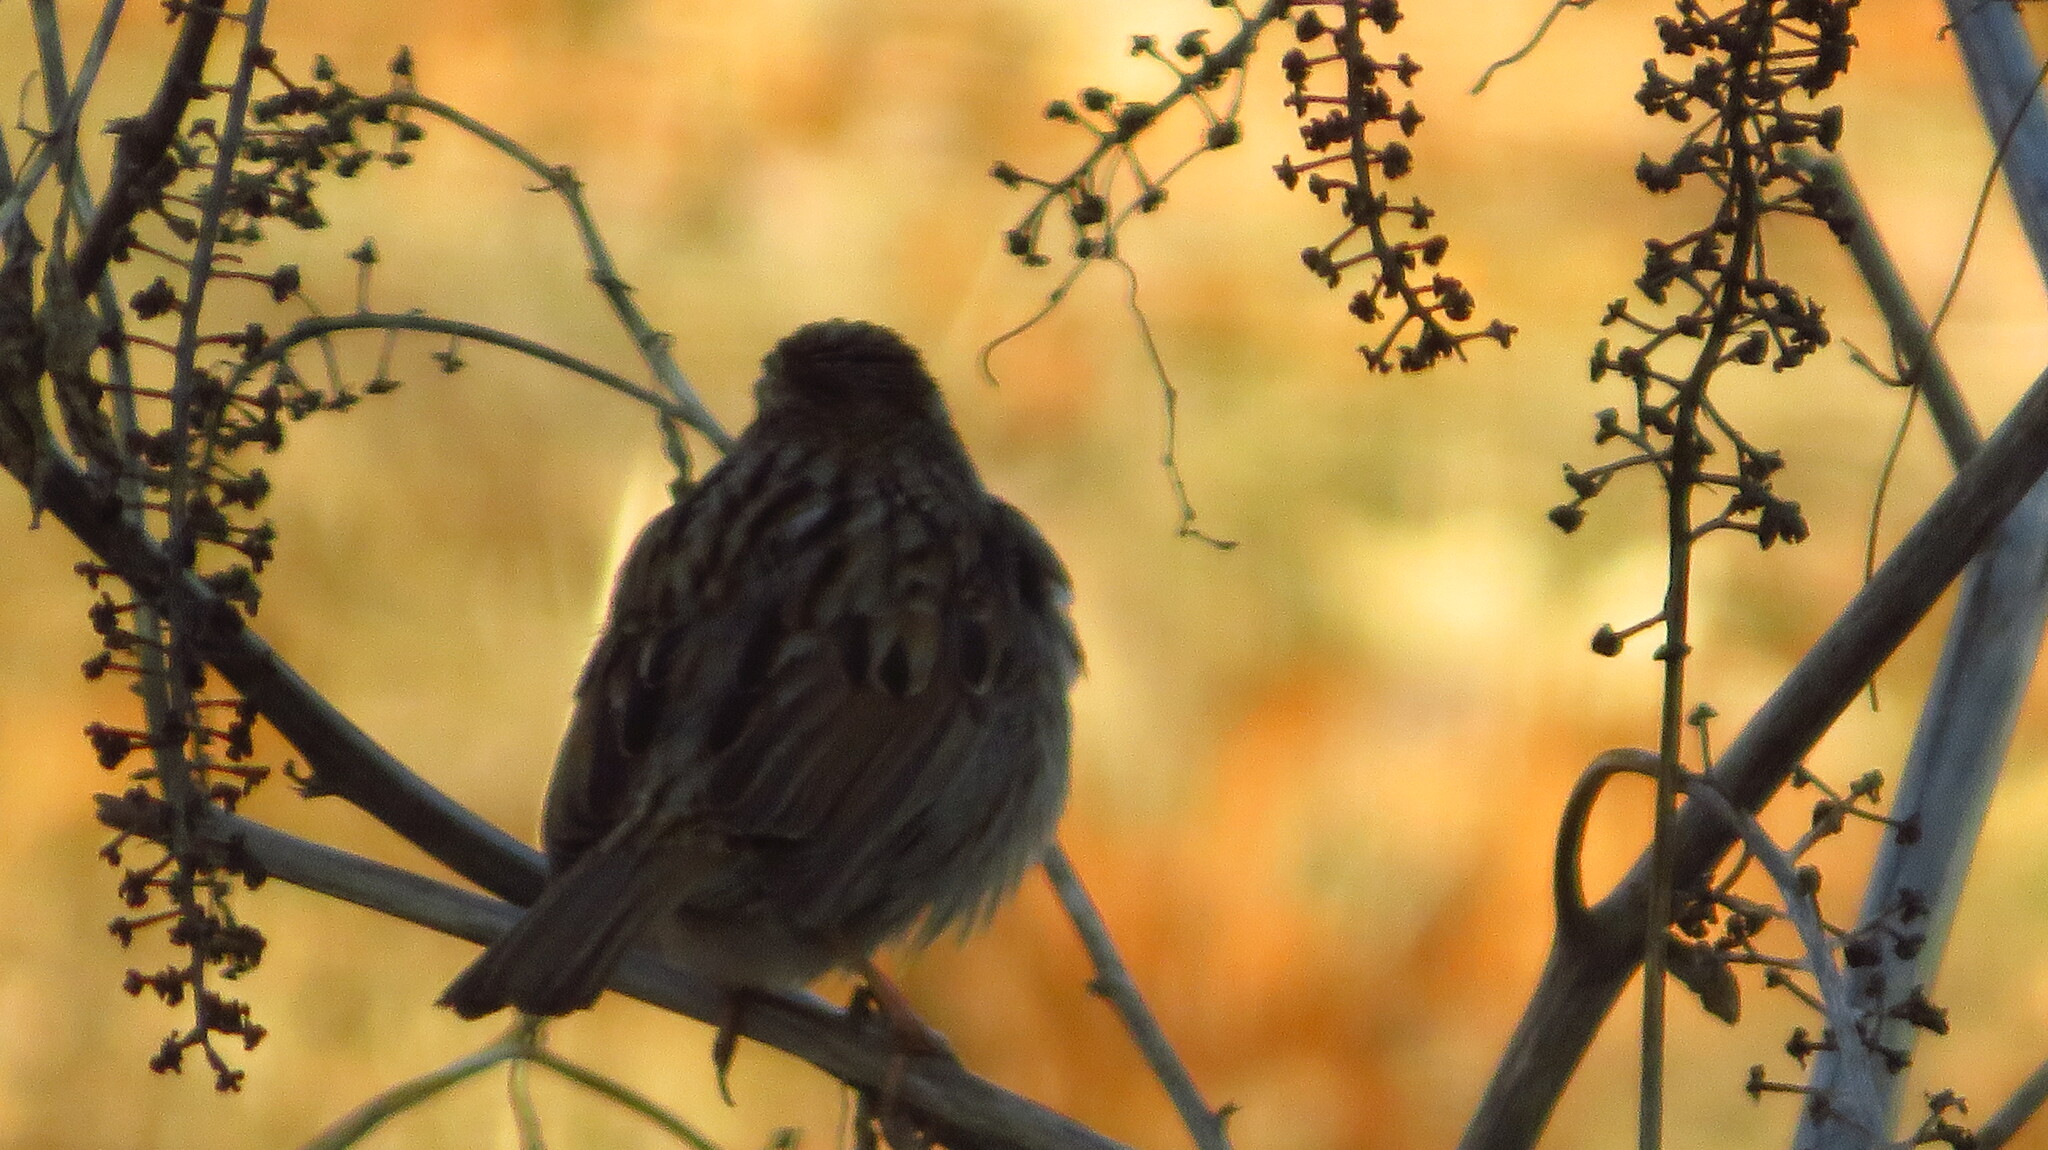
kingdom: Animalia
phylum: Chordata
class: Aves
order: Passeriformes
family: Passerellidae
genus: Melospiza
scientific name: Melospiza melodia
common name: Song sparrow
